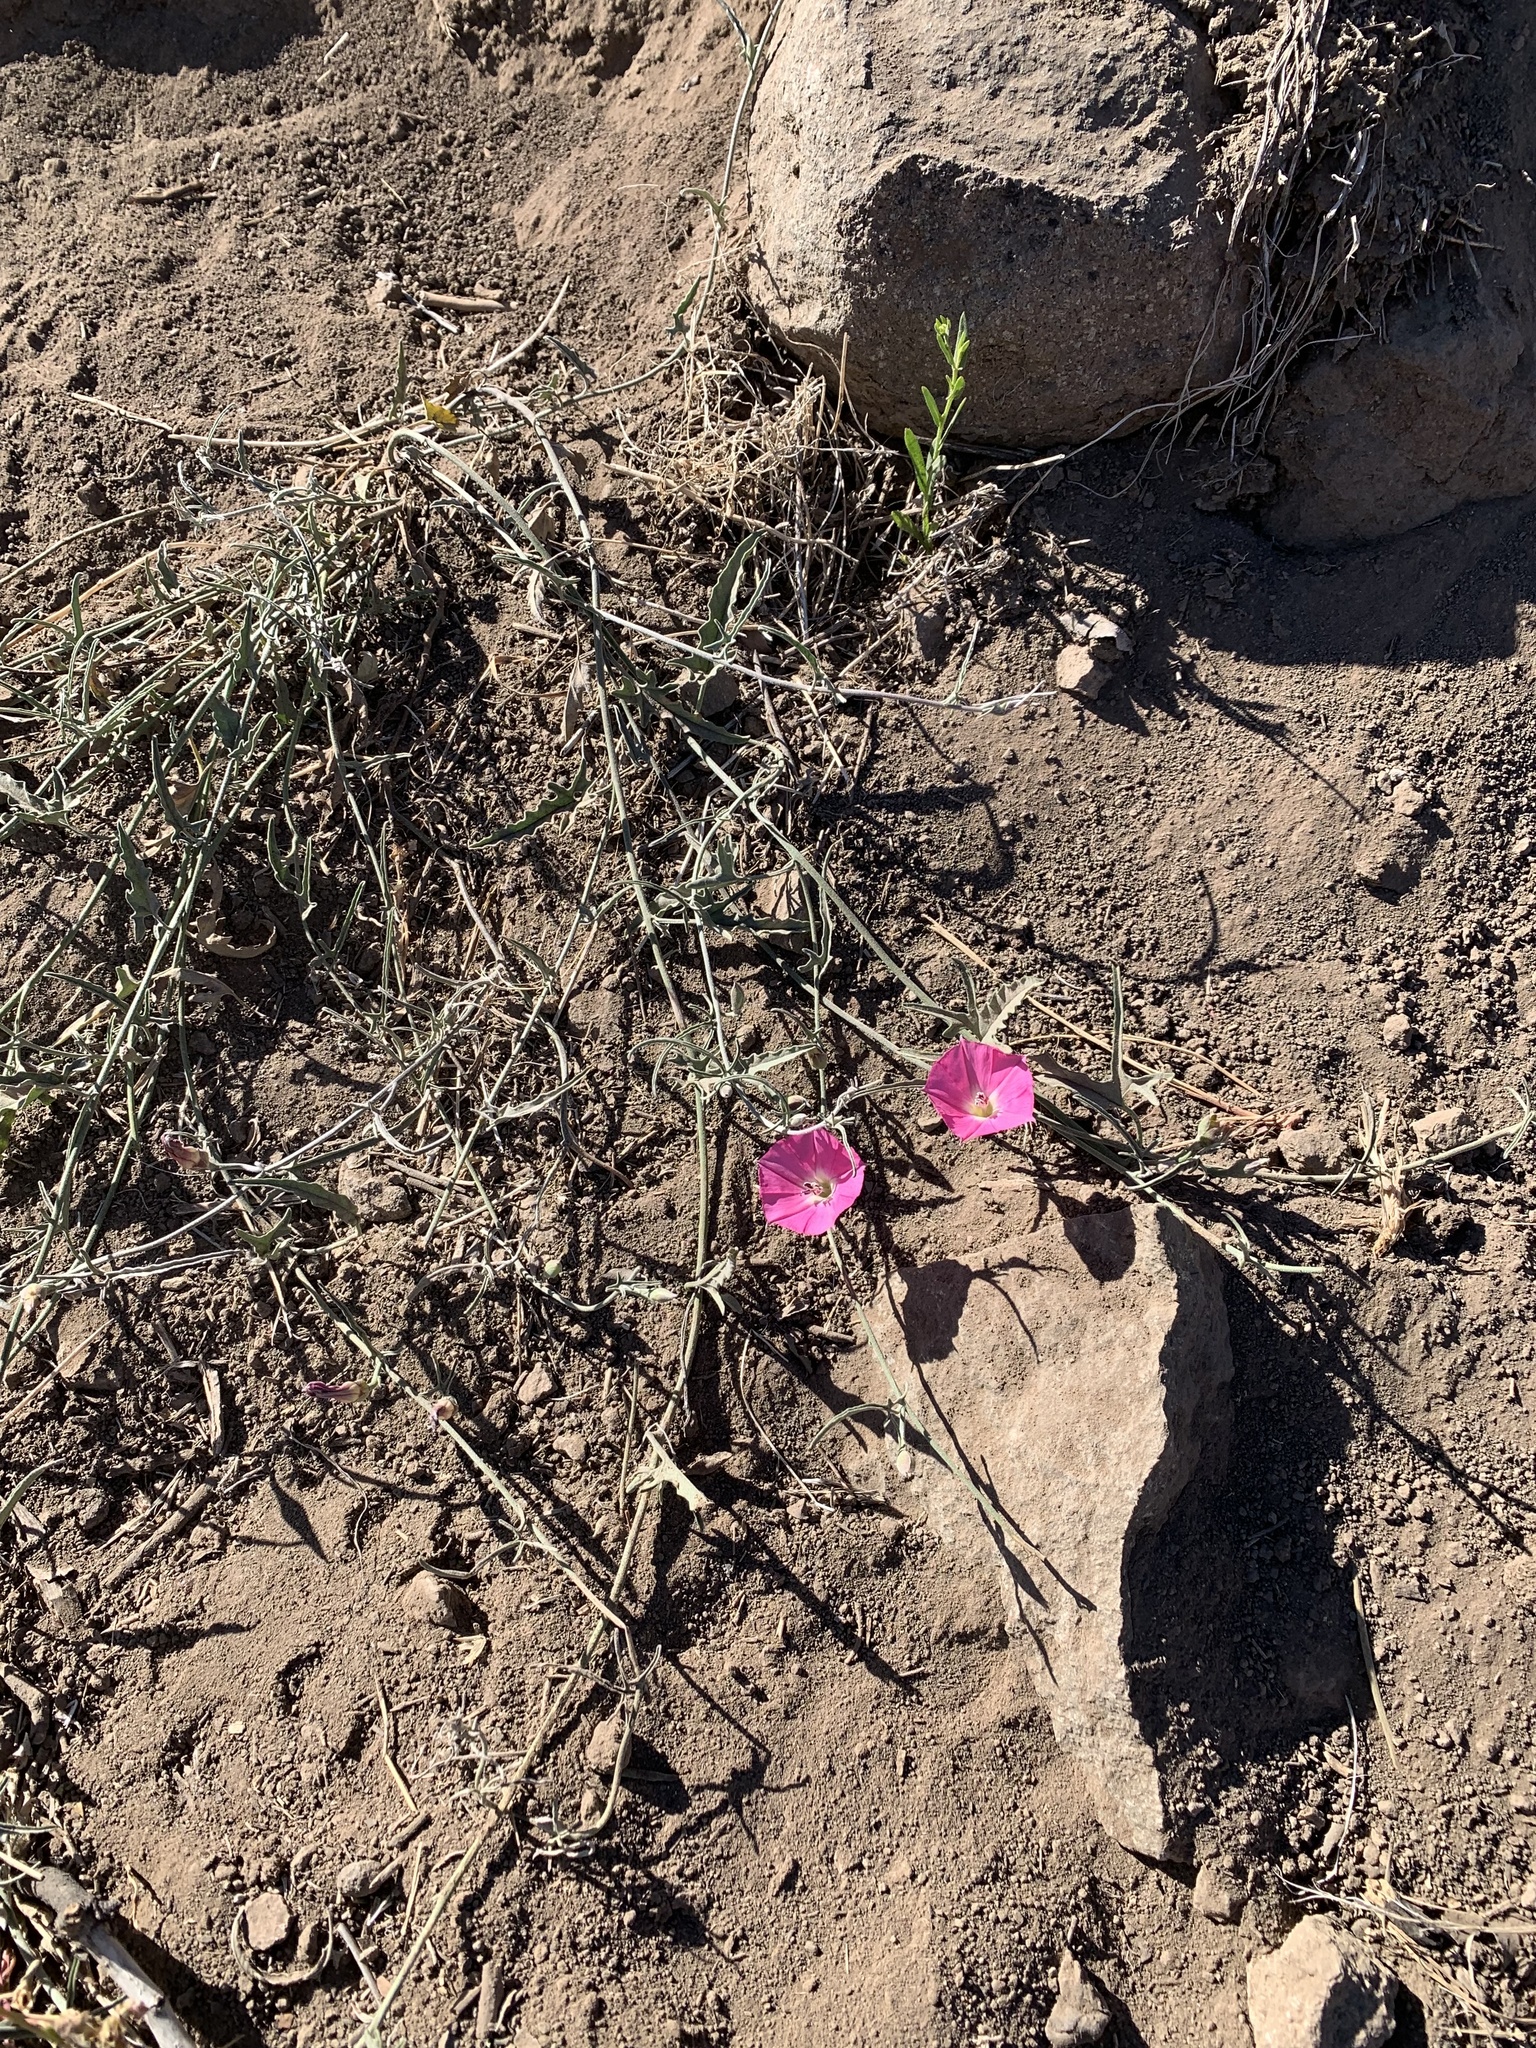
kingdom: Plantae
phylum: Tracheophyta
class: Magnoliopsida
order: Solanales
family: Convolvulaceae
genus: Convolvulus
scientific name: Convolvulus chilensis
